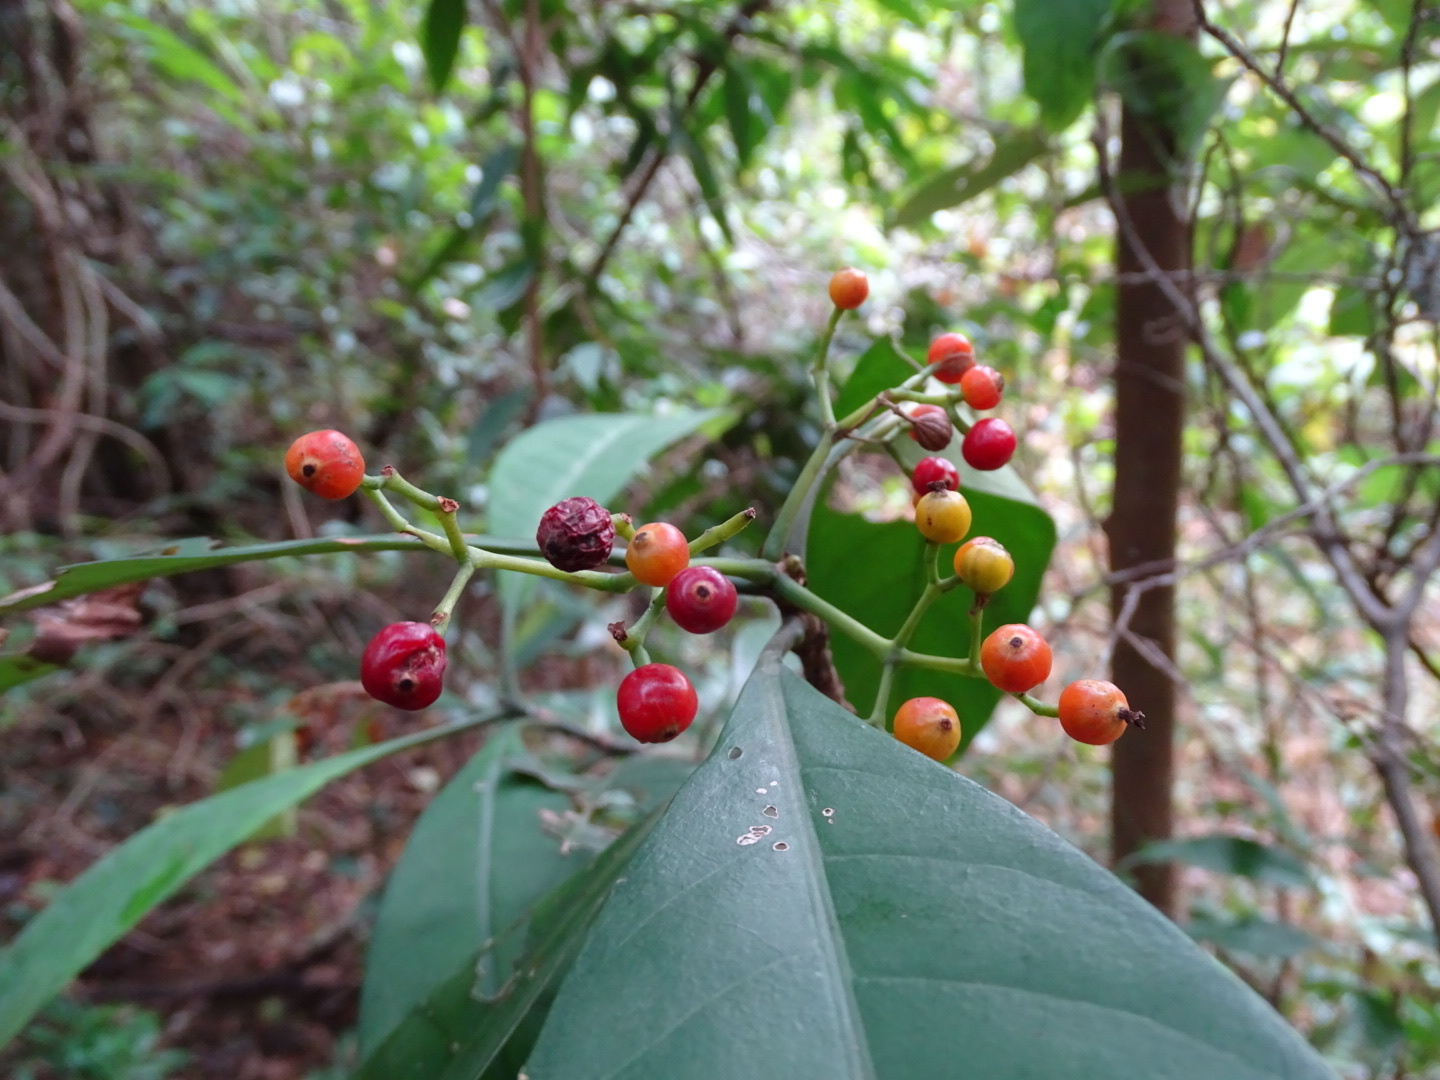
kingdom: Plantae
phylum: Tracheophyta
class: Magnoliopsida
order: Gentianales
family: Rubiaceae
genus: Psychotria
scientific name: Psychotria asiatica
